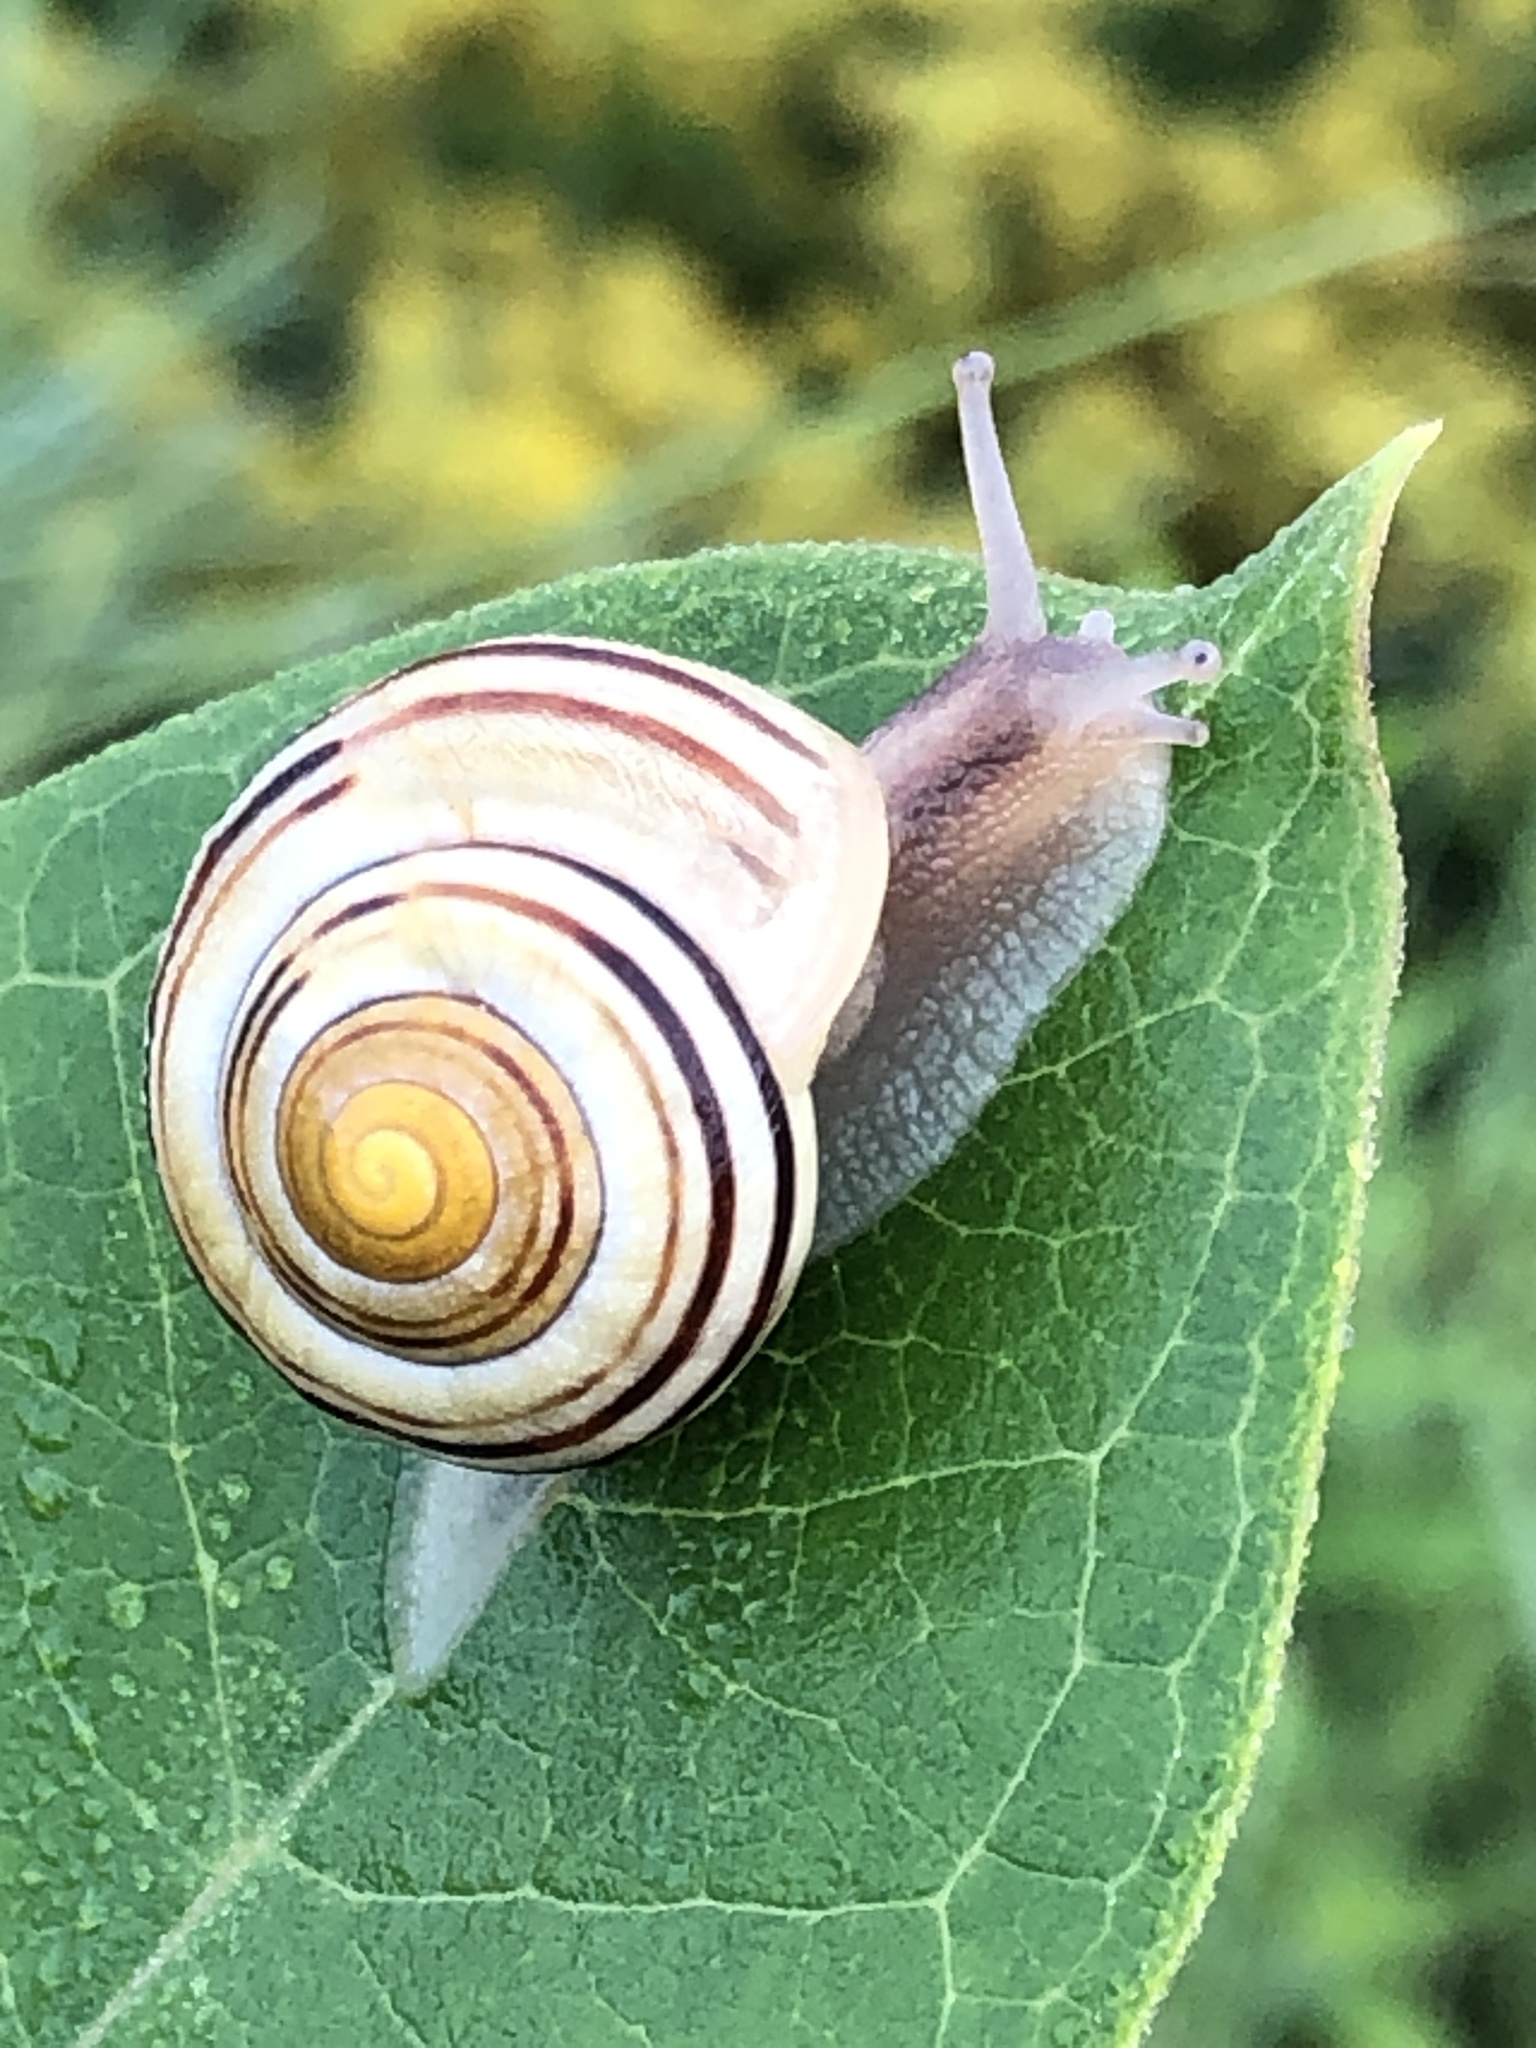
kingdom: Animalia
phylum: Mollusca
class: Gastropoda
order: Stylommatophora
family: Helicidae
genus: Cepaea
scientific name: Cepaea
